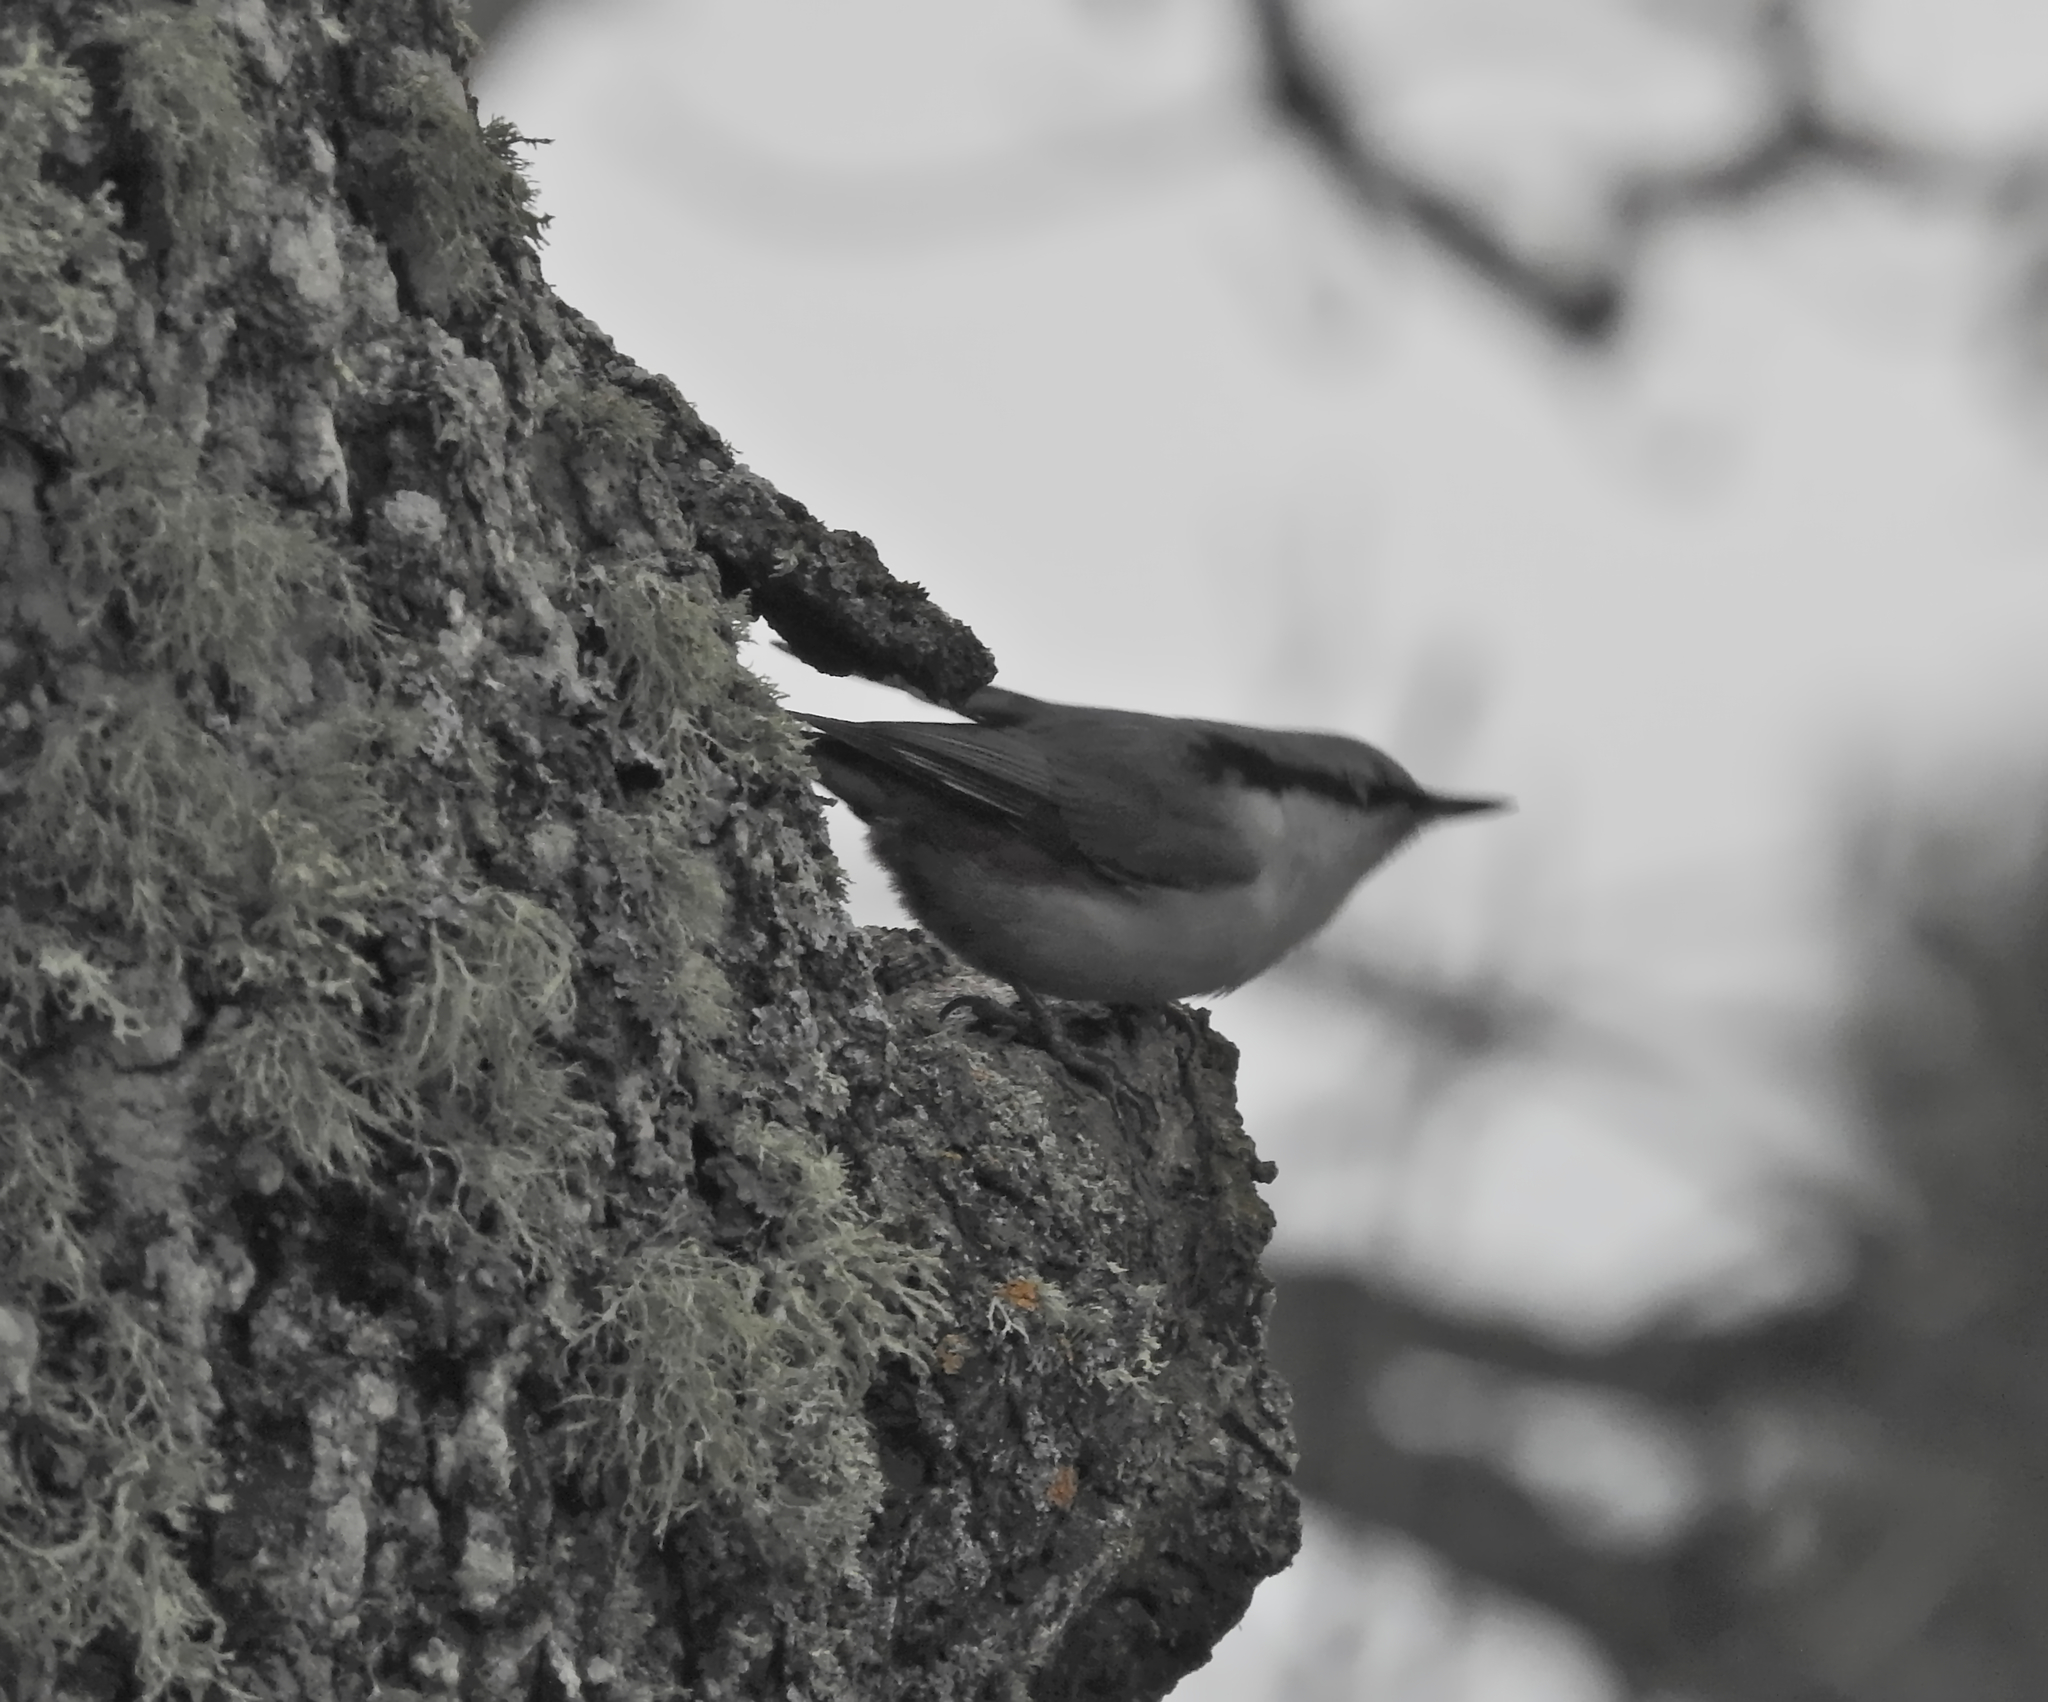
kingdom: Animalia
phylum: Chordata
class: Aves
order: Passeriformes
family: Sittidae
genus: Sitta
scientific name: Sitta europaea
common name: Eurasian nuthatch
